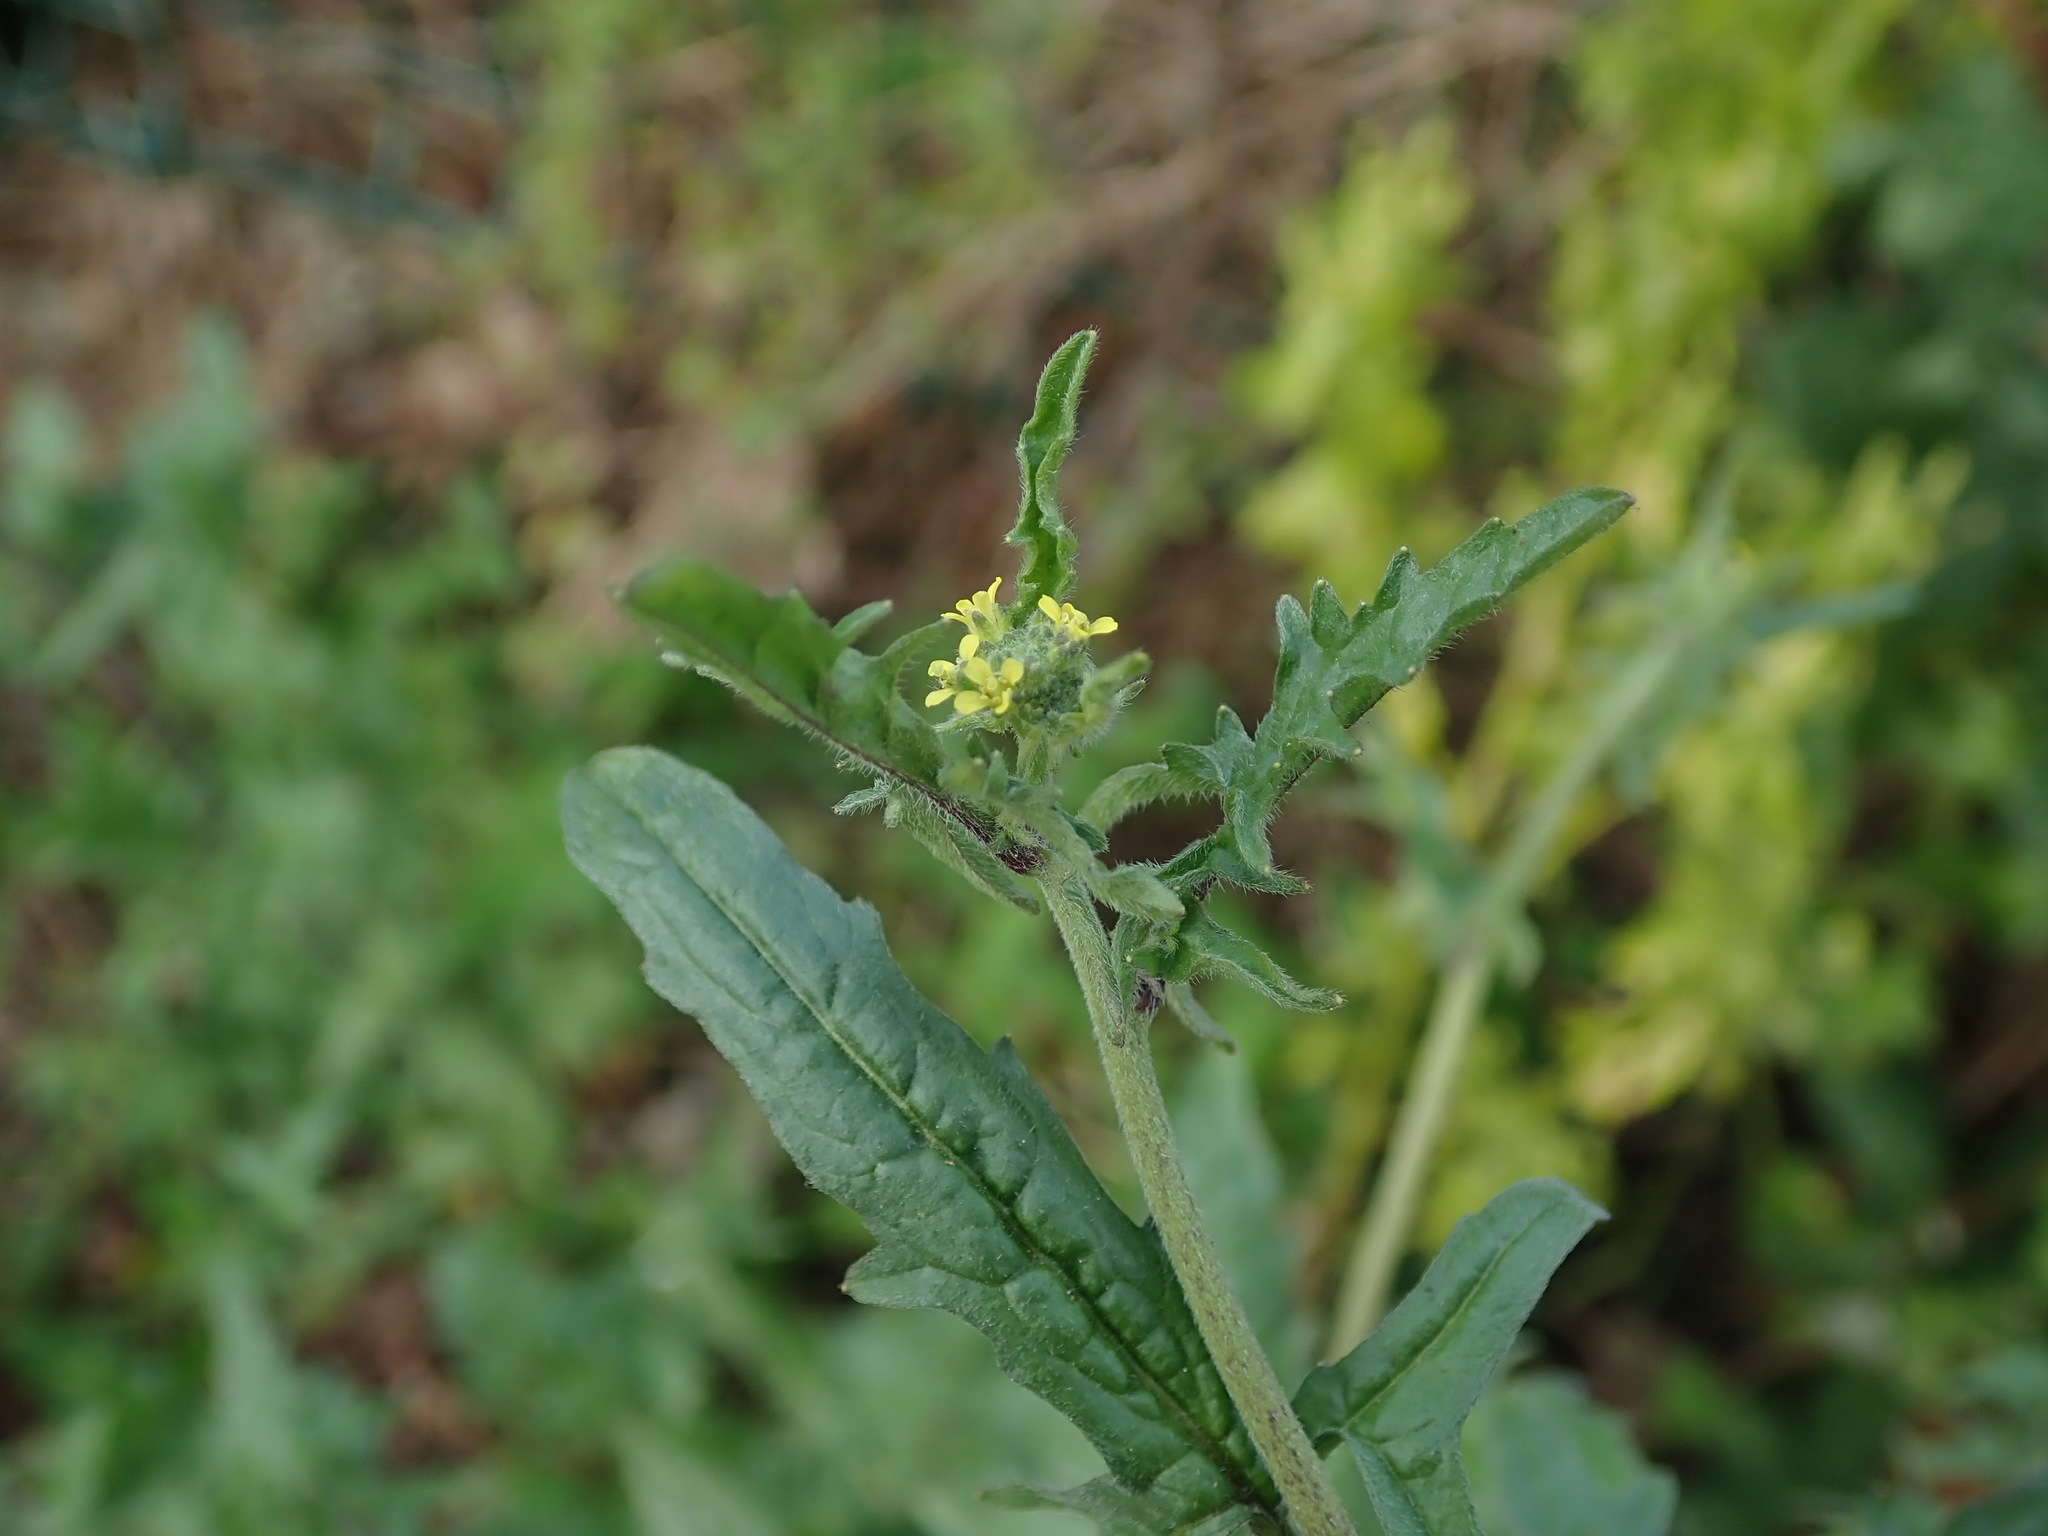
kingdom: Plantae
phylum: Tracheophyta
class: Magnoliopsida
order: Brassicales
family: Brassicaceae
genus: Sisymbrium
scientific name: Sisymbrium officinale
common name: Hedge mustard
